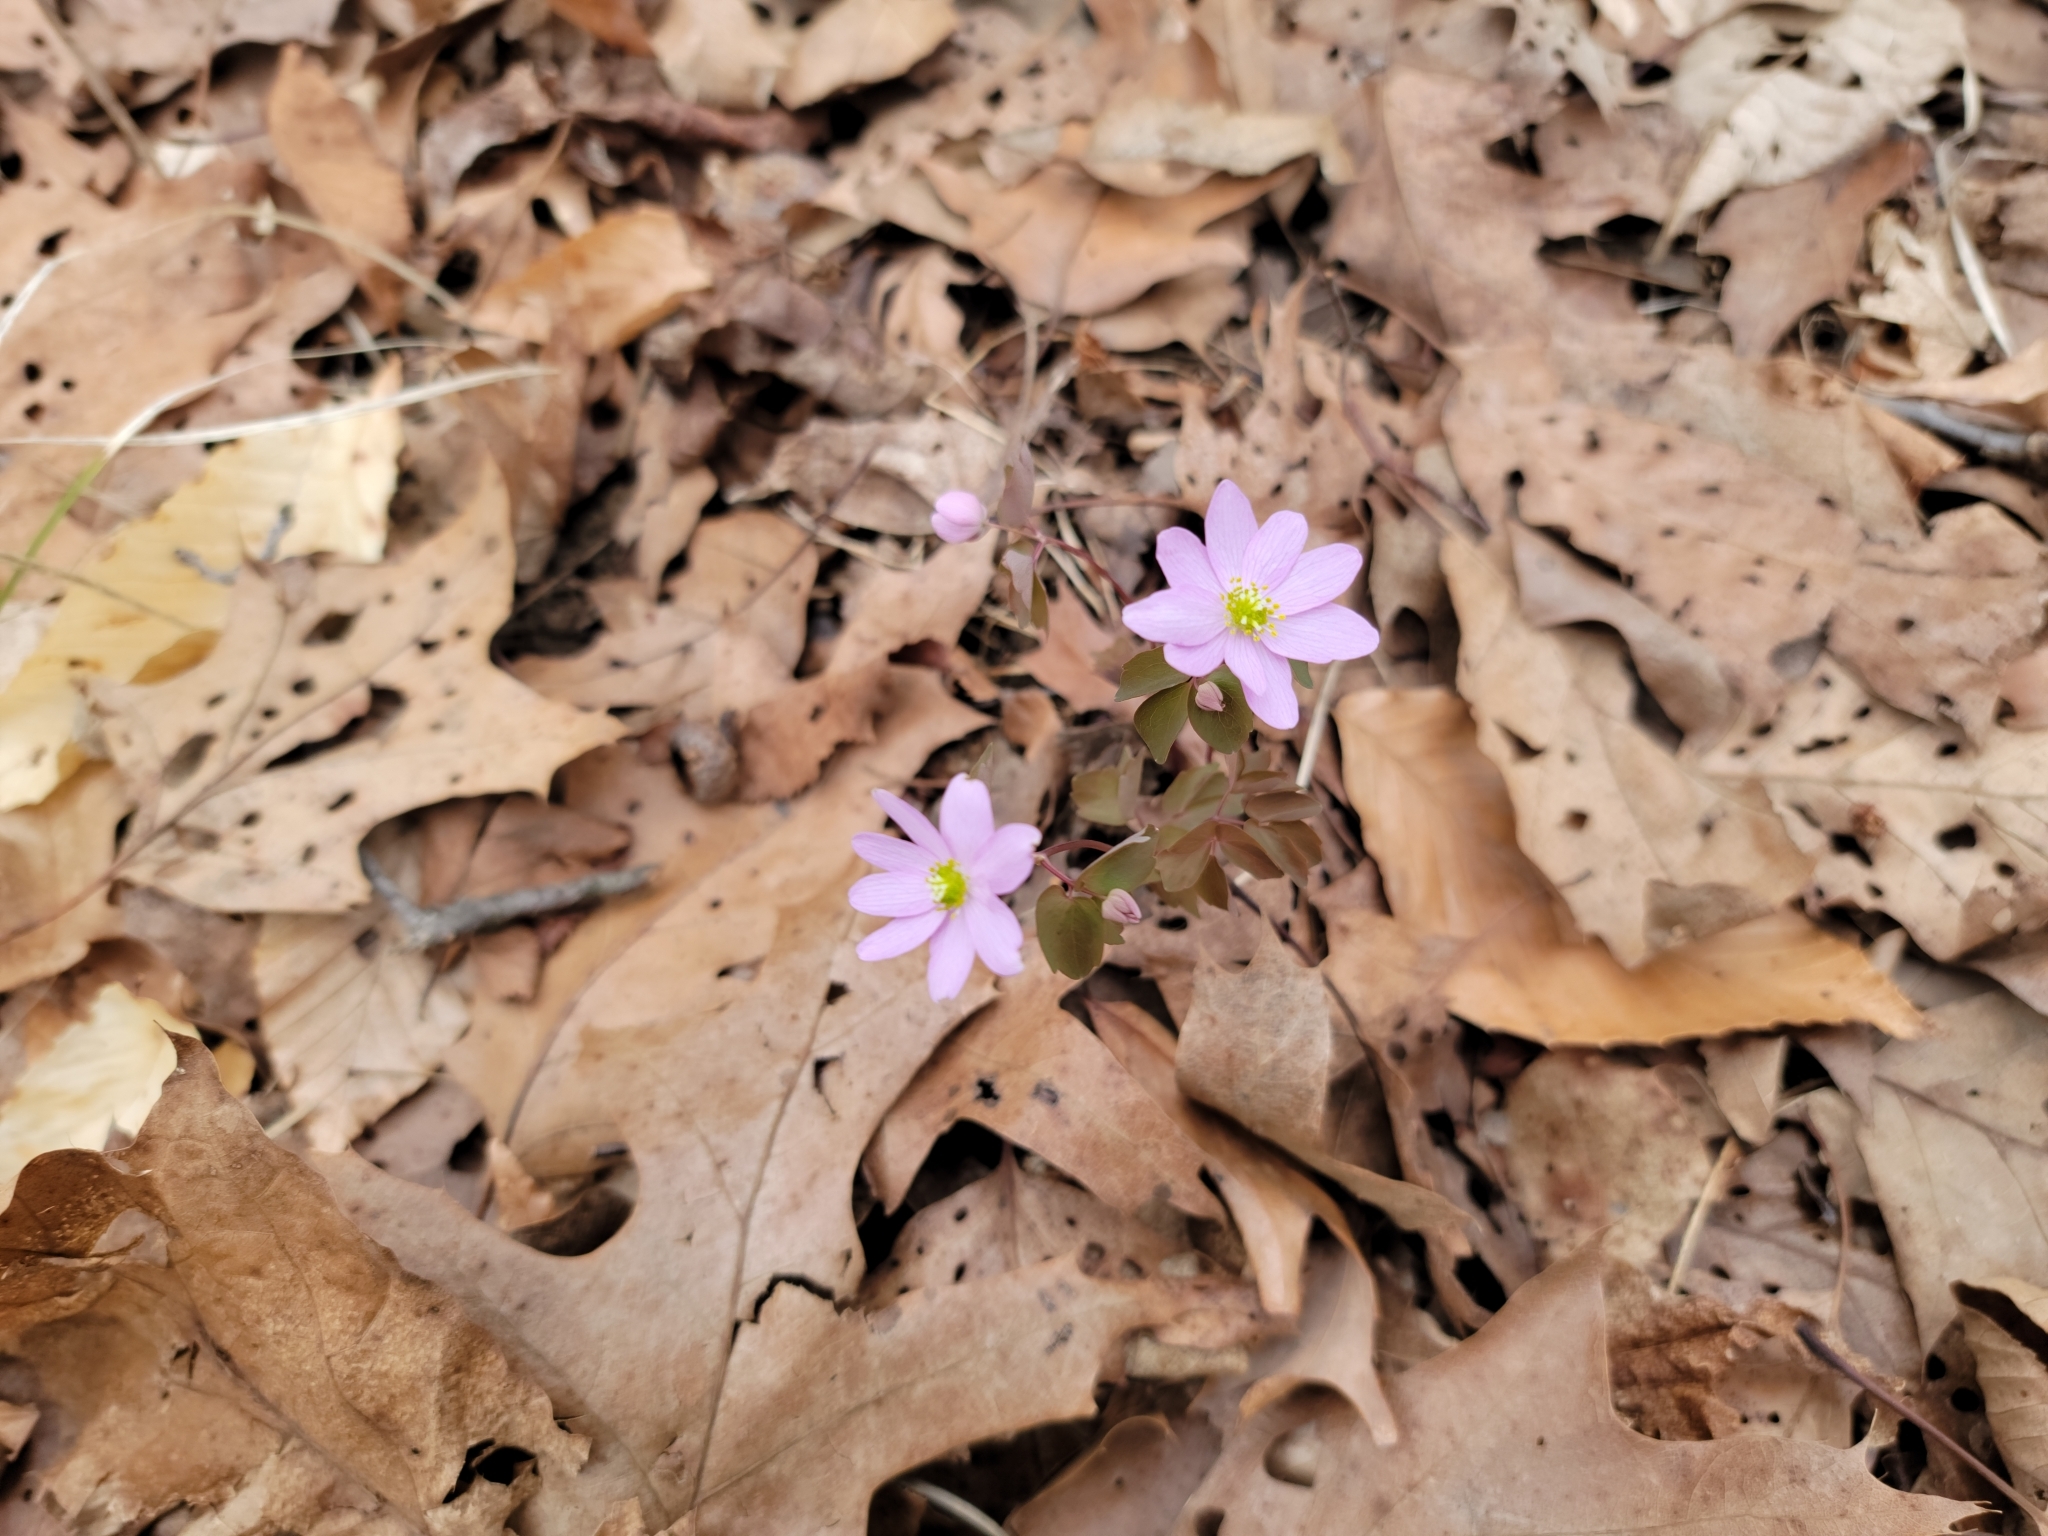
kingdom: Plantae
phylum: Tracheophyta
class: Magnoliopsida
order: Ranunculales
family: Ranunculaceae
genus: Thalictrum
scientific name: Thalictrum thalictroides
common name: Rue-anemone
